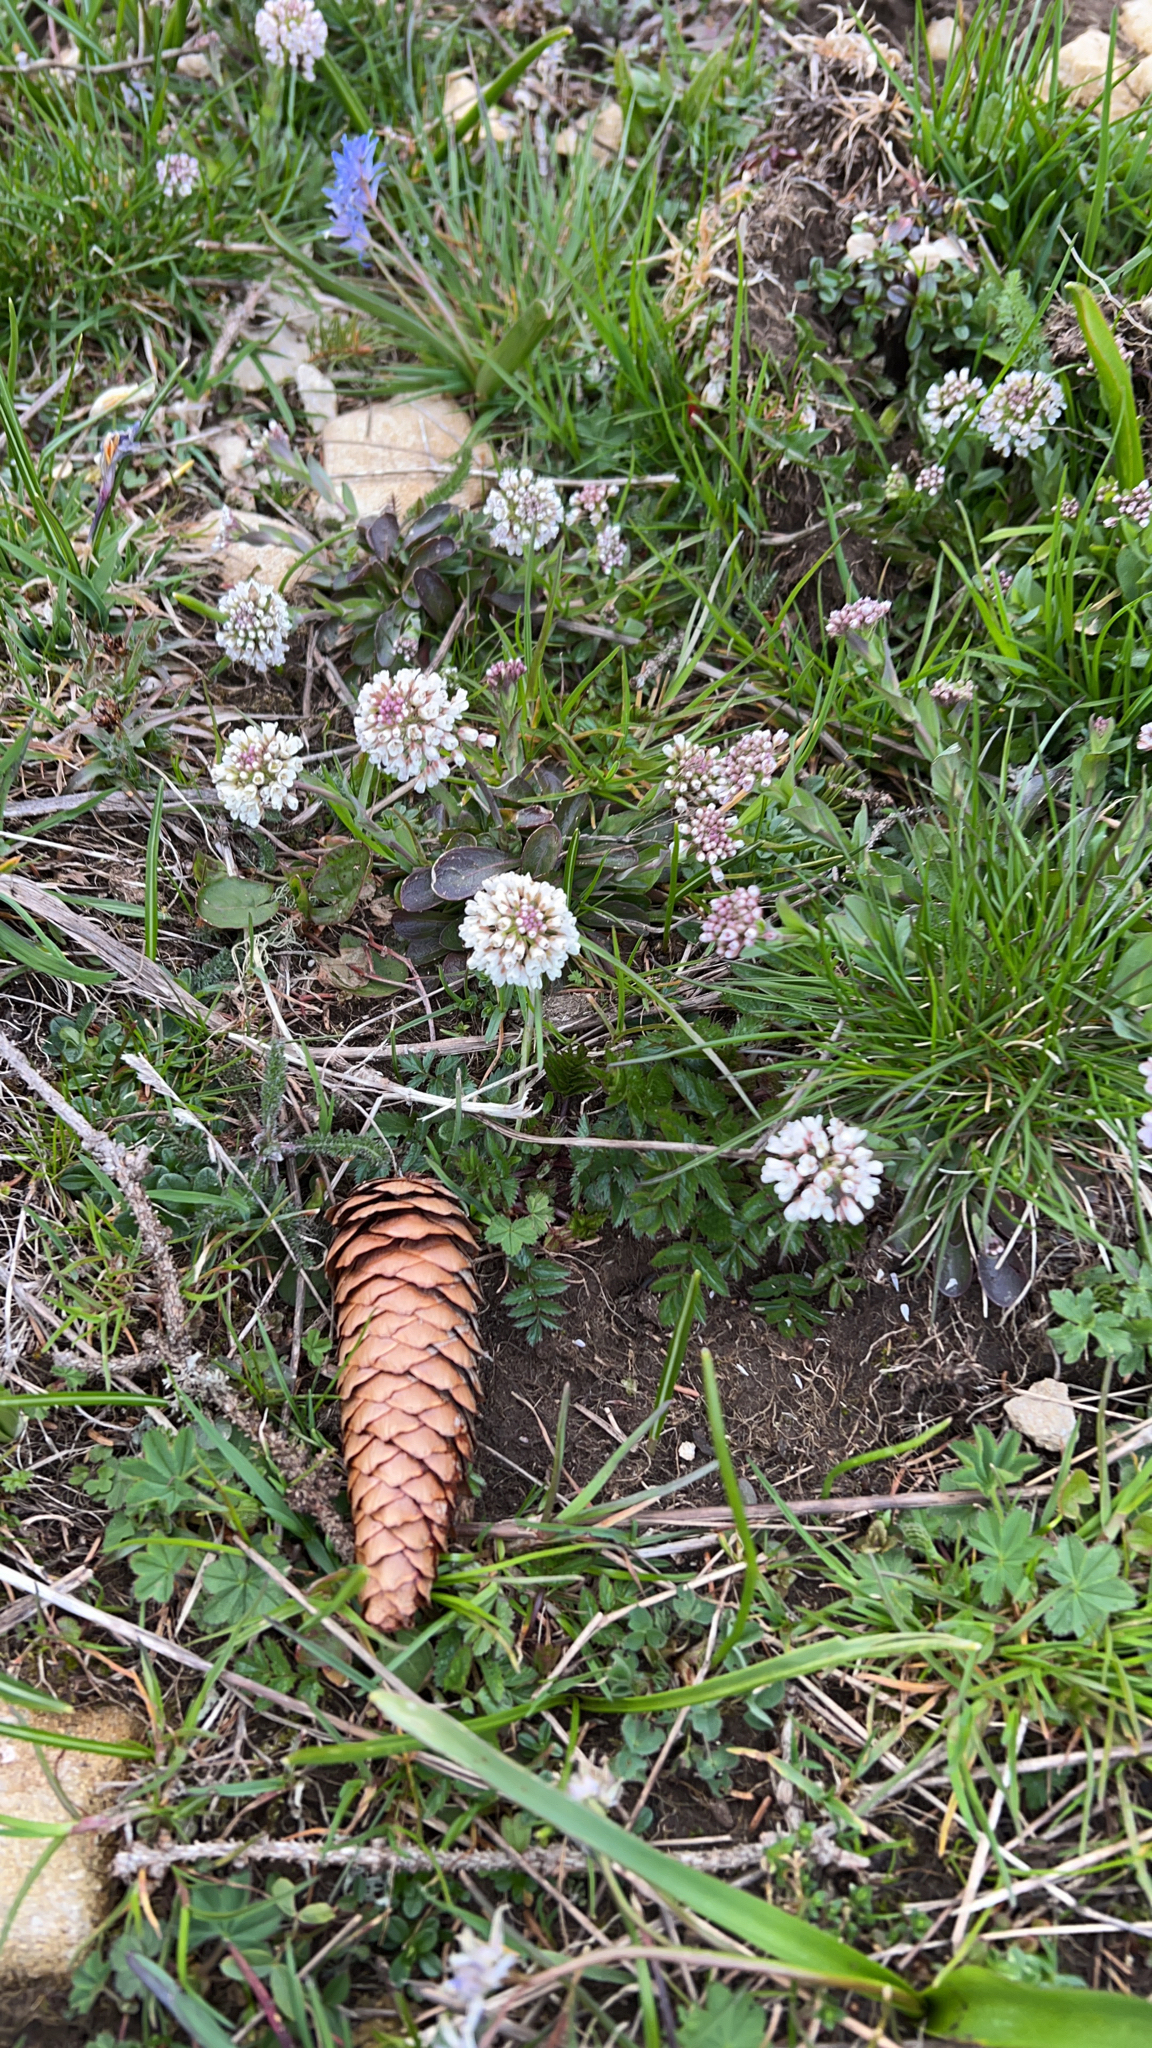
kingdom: Plantae
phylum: Tracheophyta
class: Magnoliopsida
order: Fabales
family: Fabaceae
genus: Trifolium
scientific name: Trifolium repens
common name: White clover
